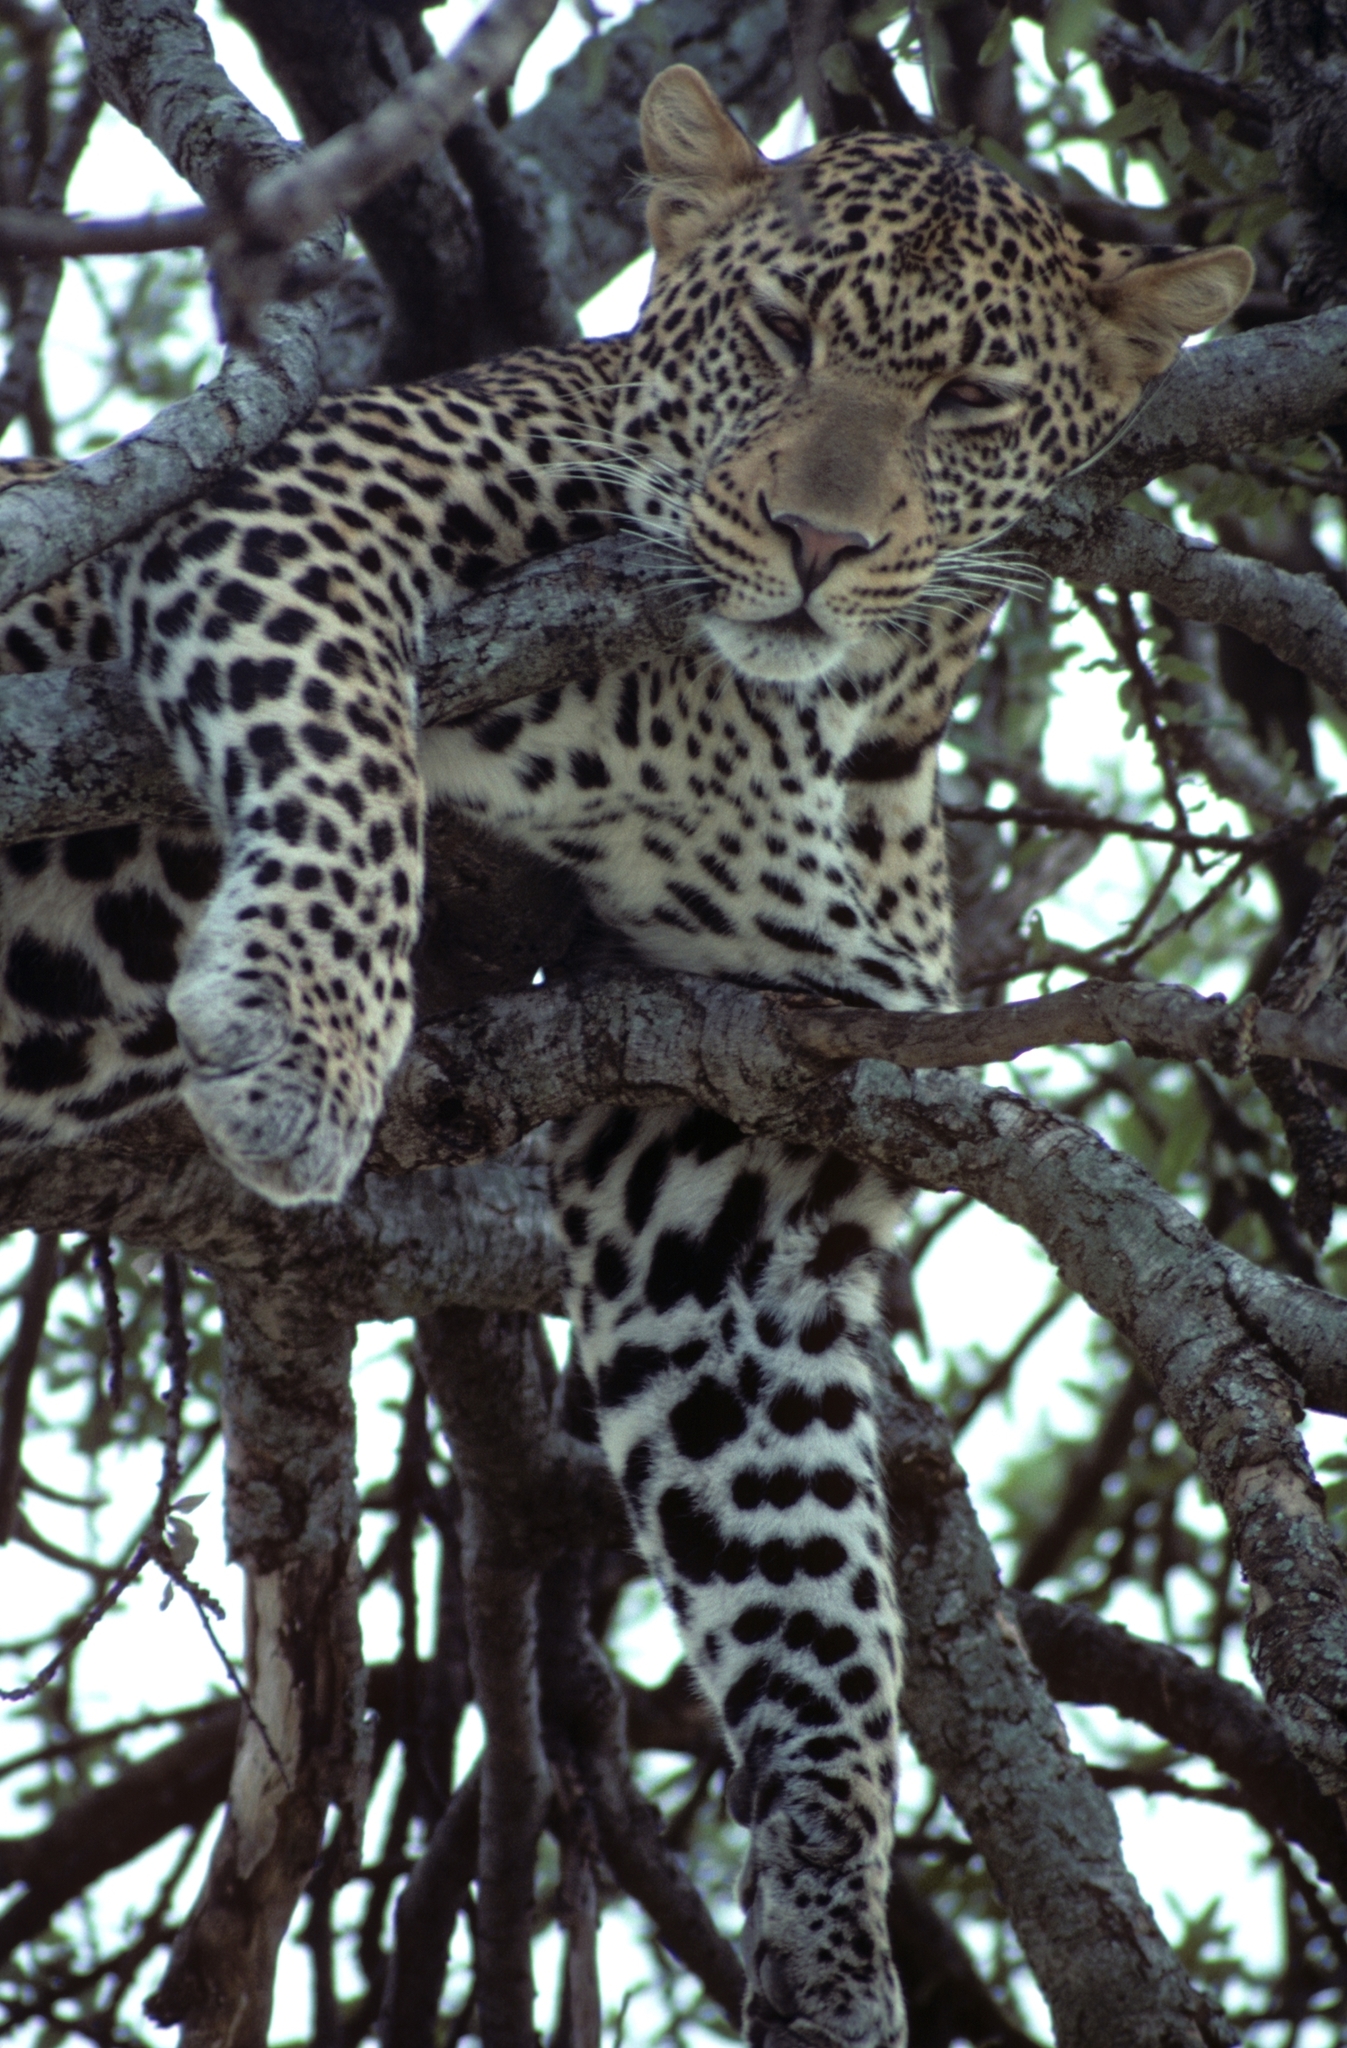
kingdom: Animalia
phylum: Chordata
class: Mammalia
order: Carnivora
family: Felidae
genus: Panthera
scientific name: Panthera pardus
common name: Leopard
